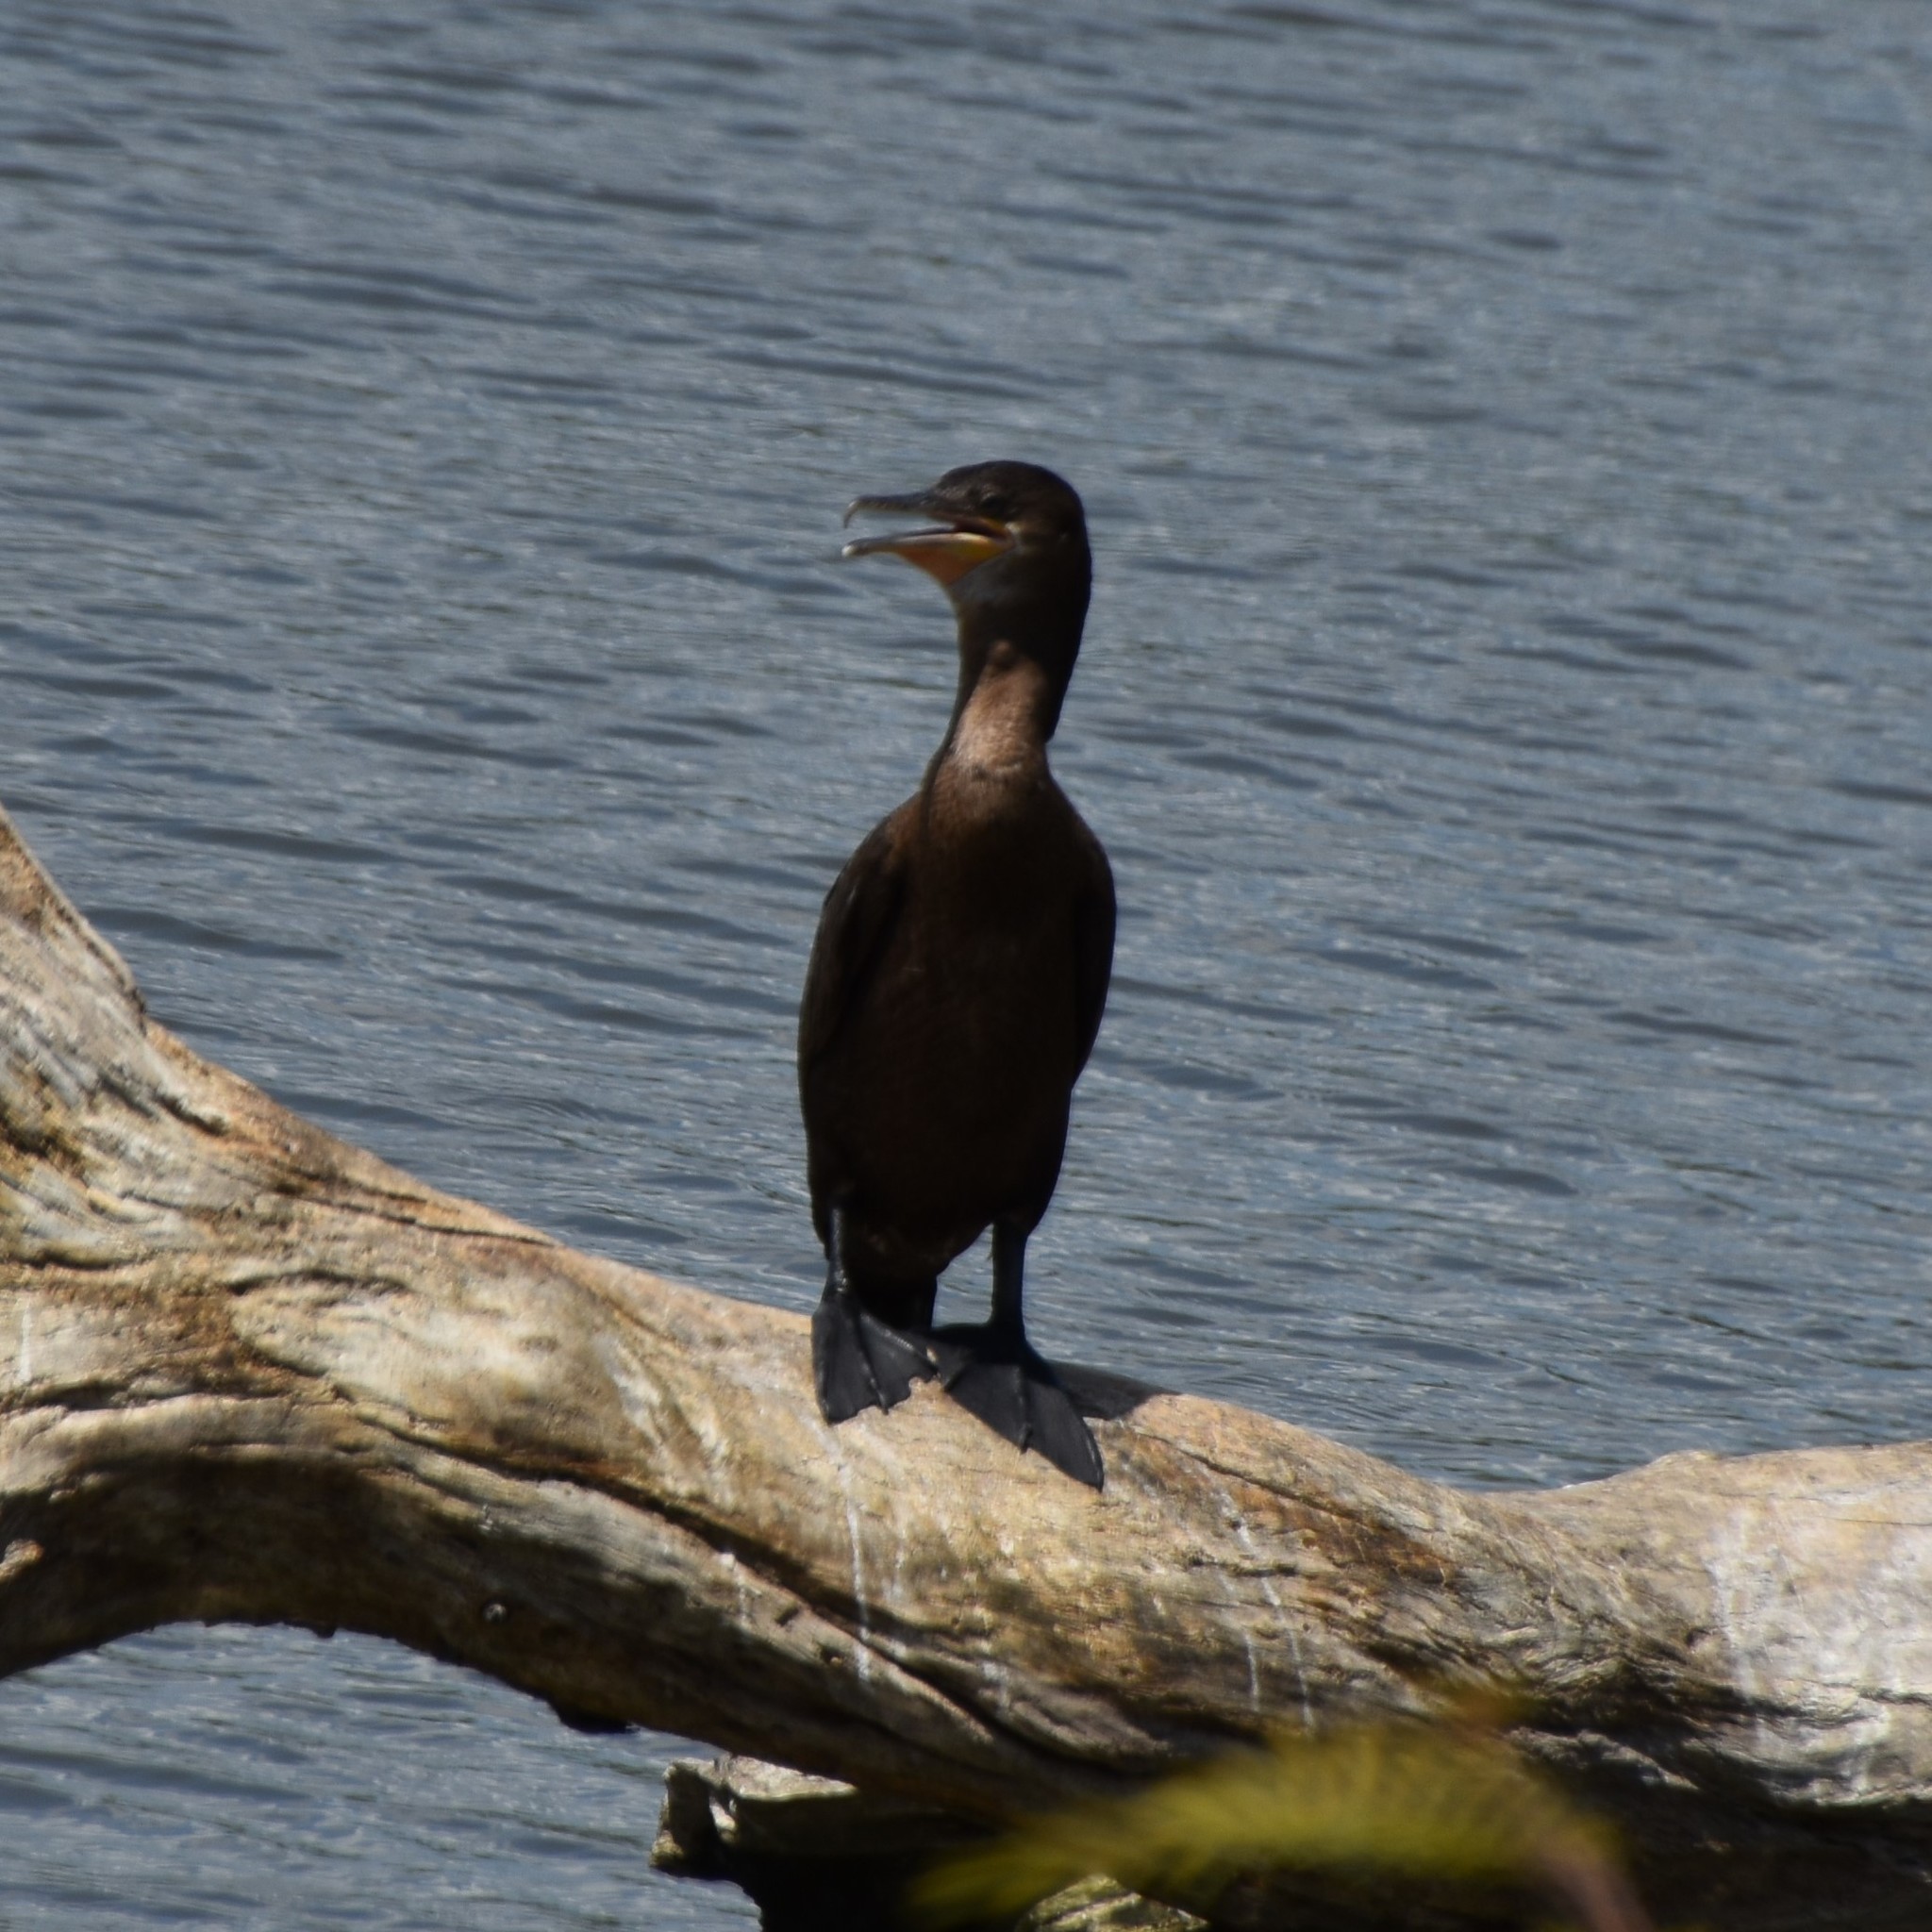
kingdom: Animalia
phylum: Chordata
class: Aves
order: Suliformes
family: Phalacrocoracidae
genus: Phalacrocorax
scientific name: Phalacrocorax brasilianus
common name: Neotropic cormorant
